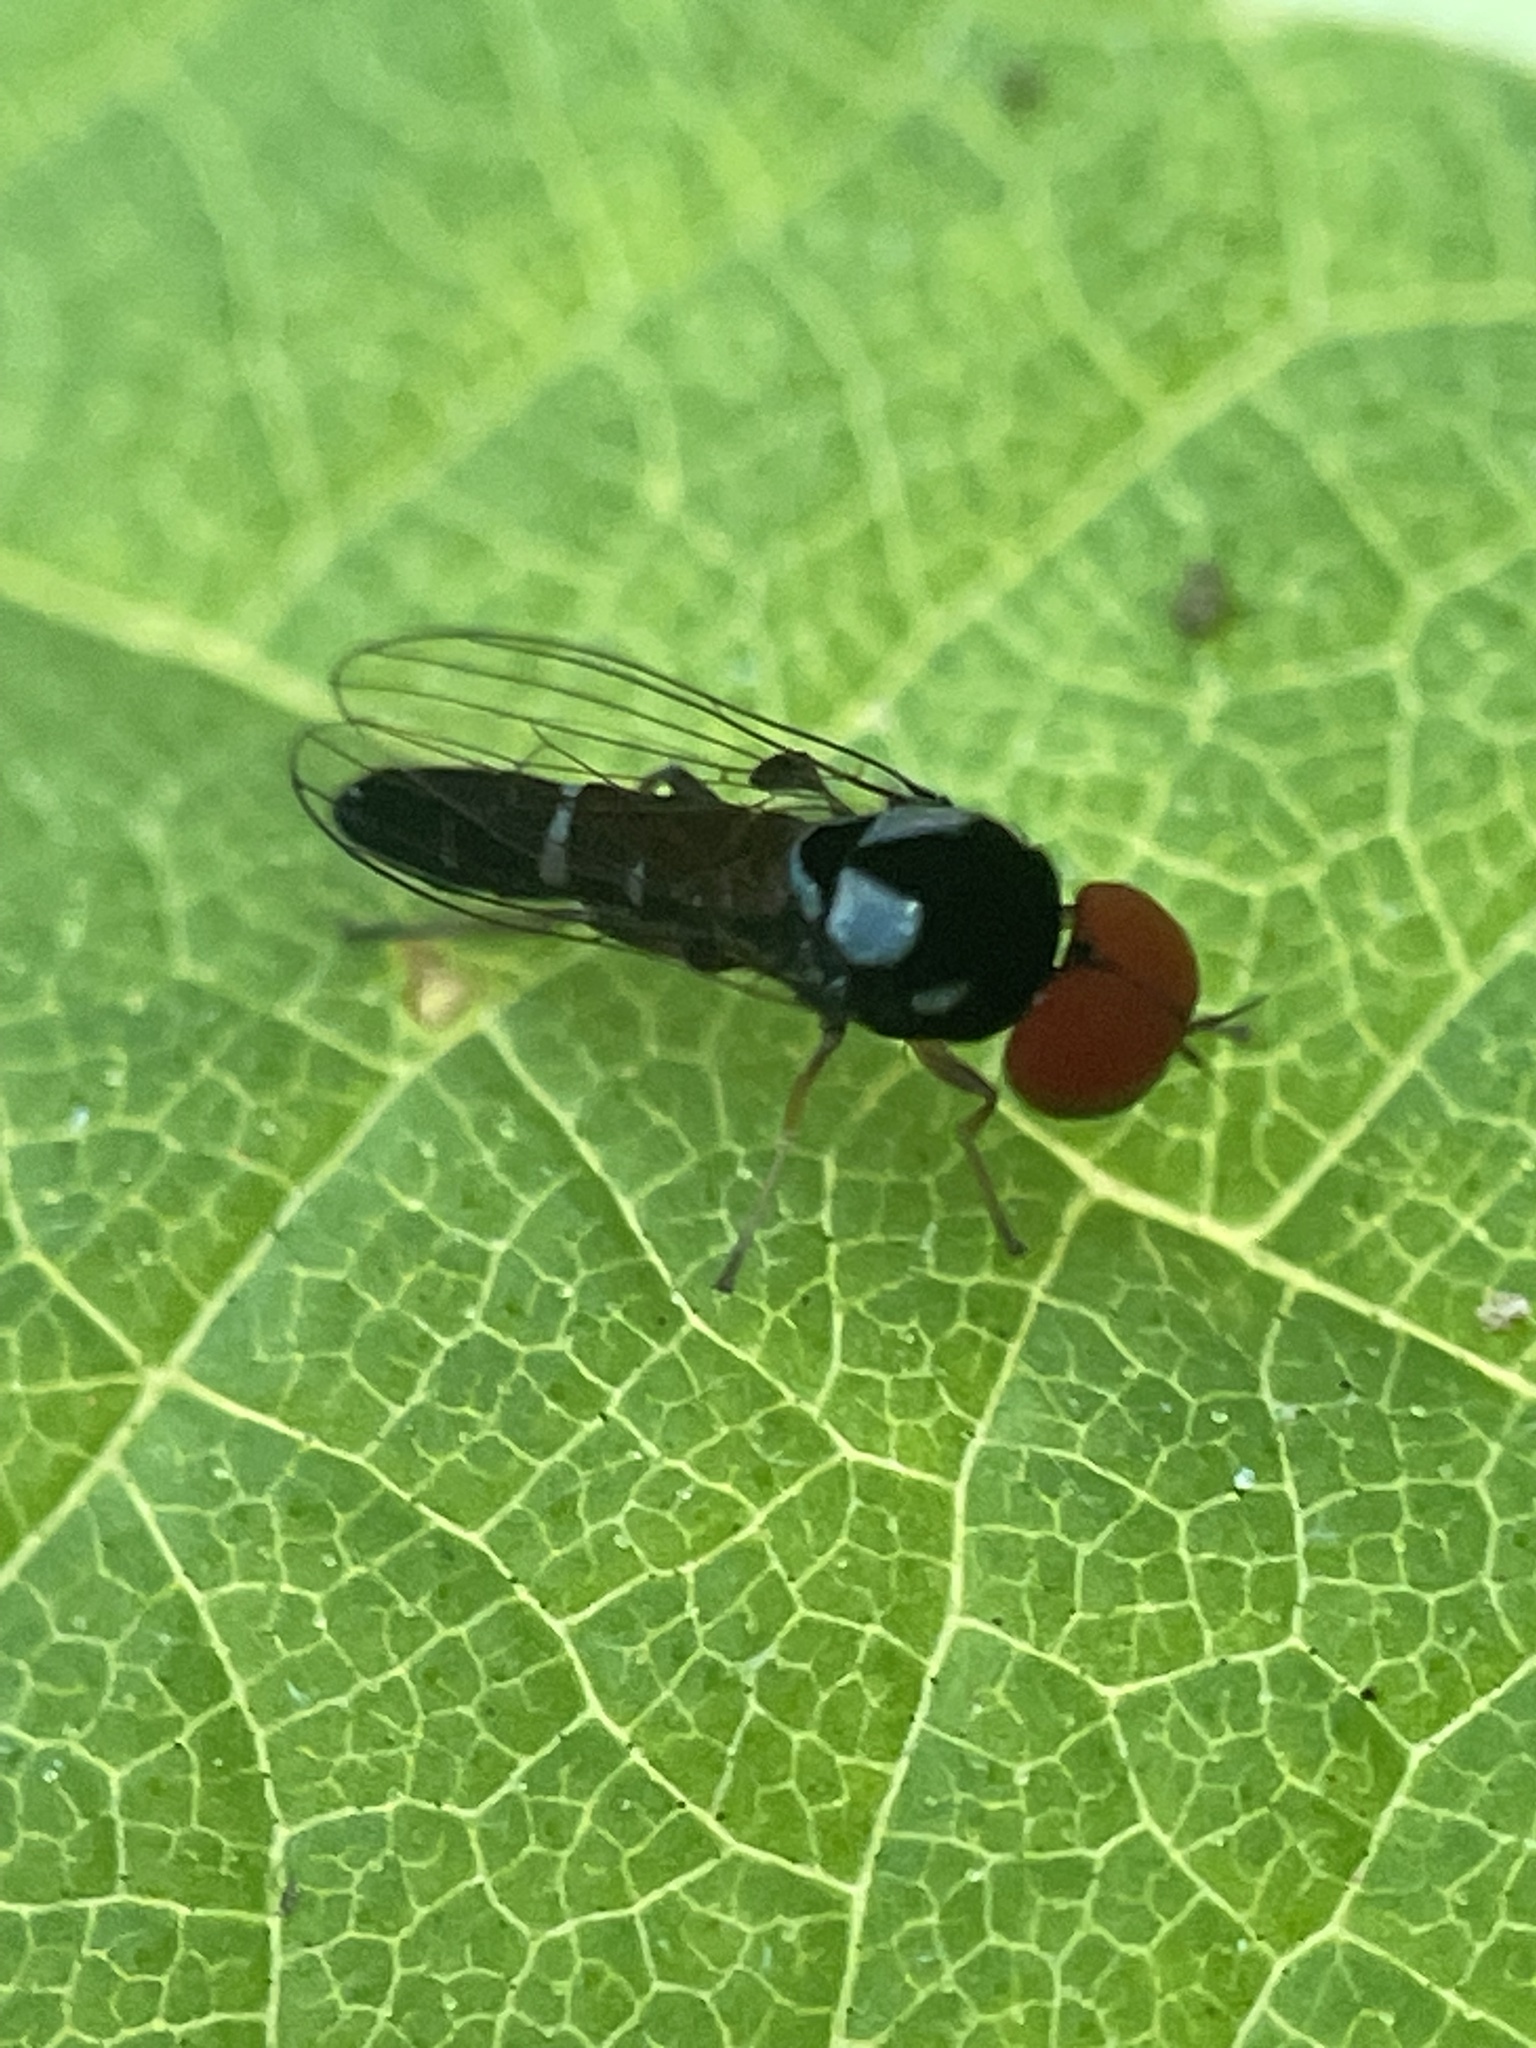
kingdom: Animalia
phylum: Arthropoda
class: Insecta
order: Diptera
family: Platypezidae
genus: Bertamyia
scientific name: Bertamyia notata
